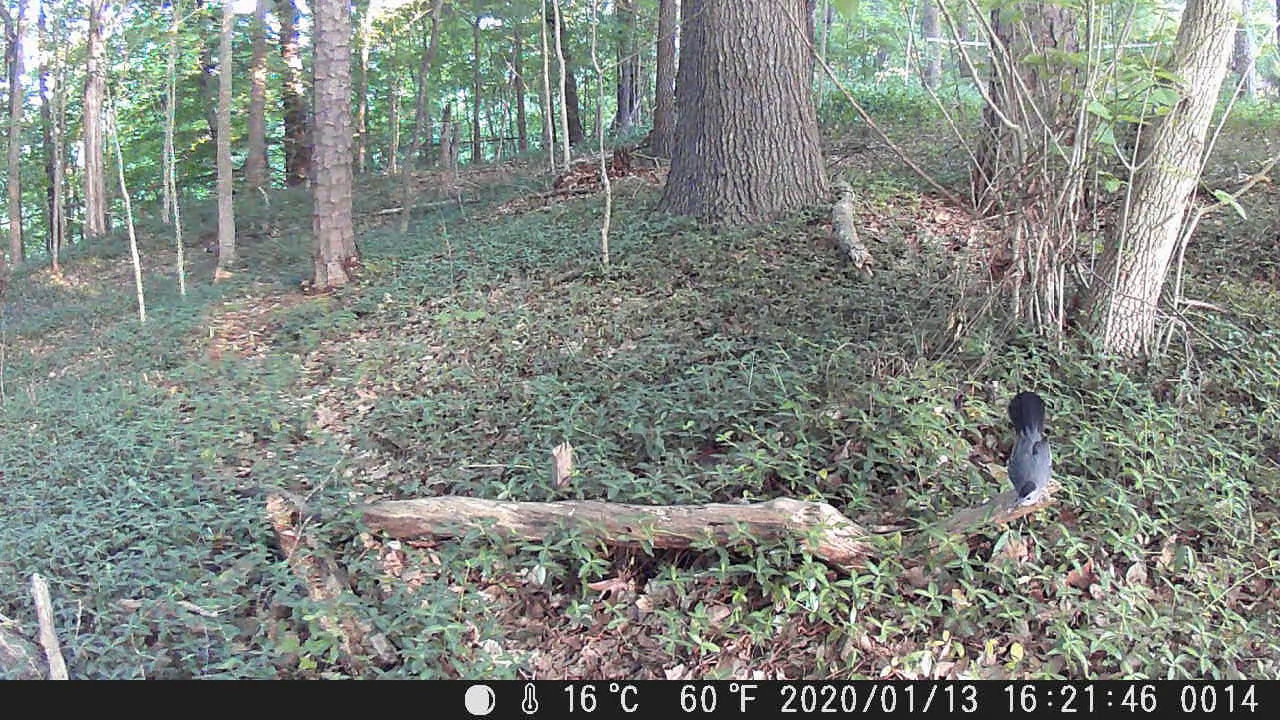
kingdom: Animalia
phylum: Chordata
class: Aves
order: Passeriformes
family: Mimidae
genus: Dumetella
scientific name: Dumetella carolinensis
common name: Gray catbird
